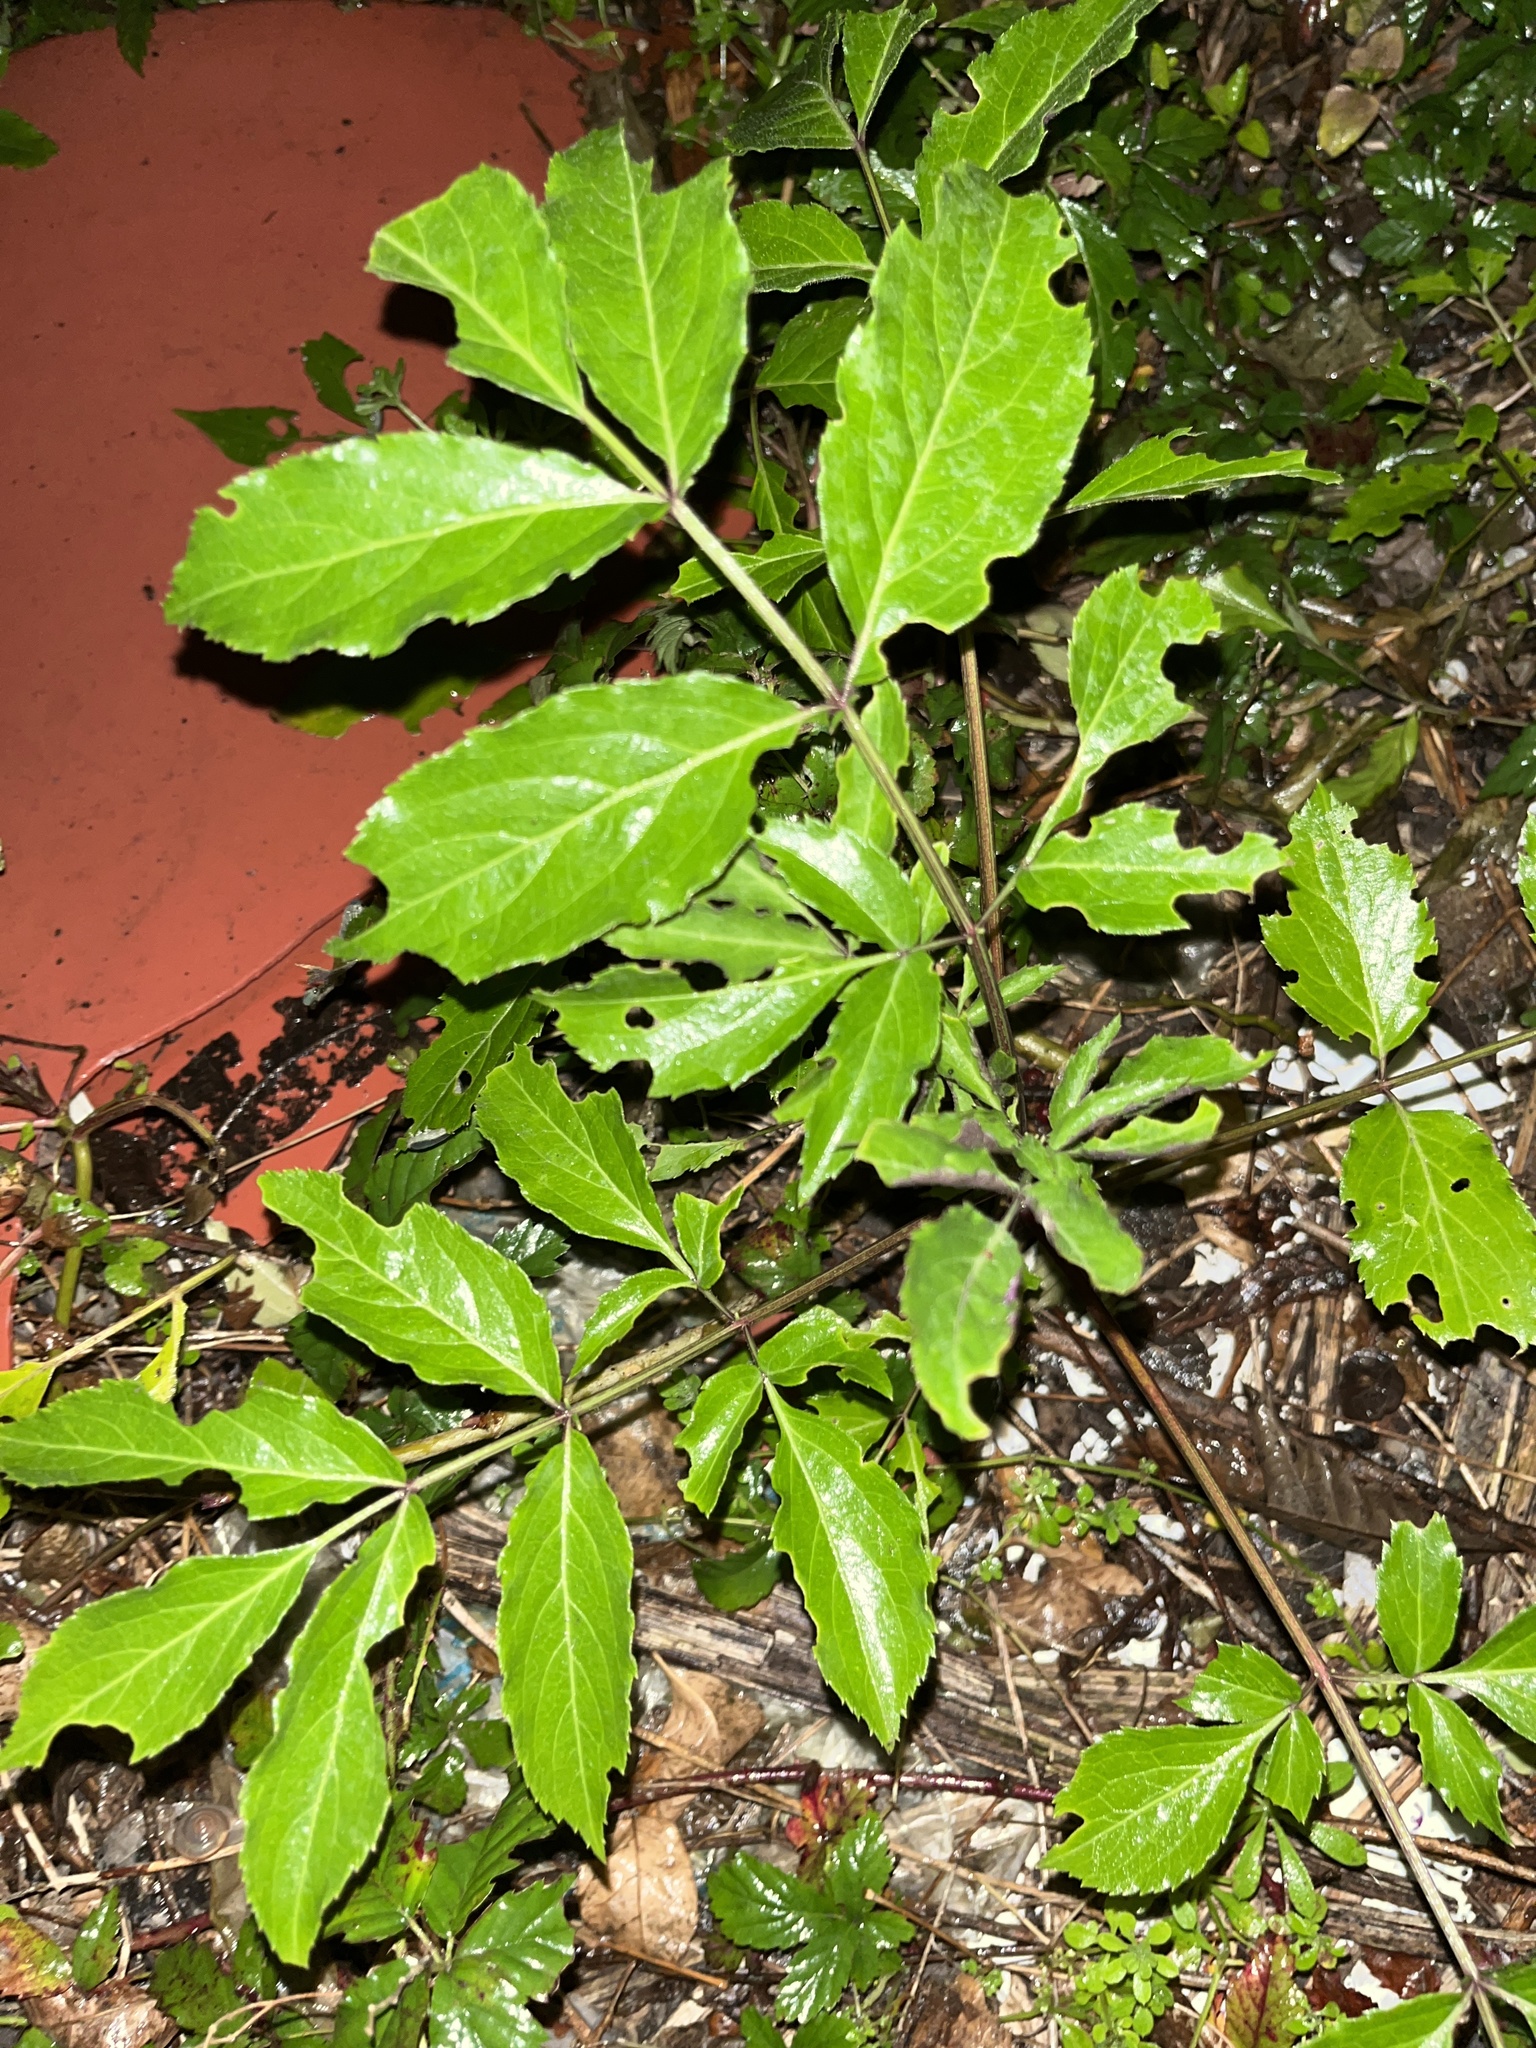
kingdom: Plantae
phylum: Tracheophyta
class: Magnoliopsida
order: Dipsacales
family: Viburnaceae
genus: Sambucus
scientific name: Sambucus canadensis
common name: American elder
